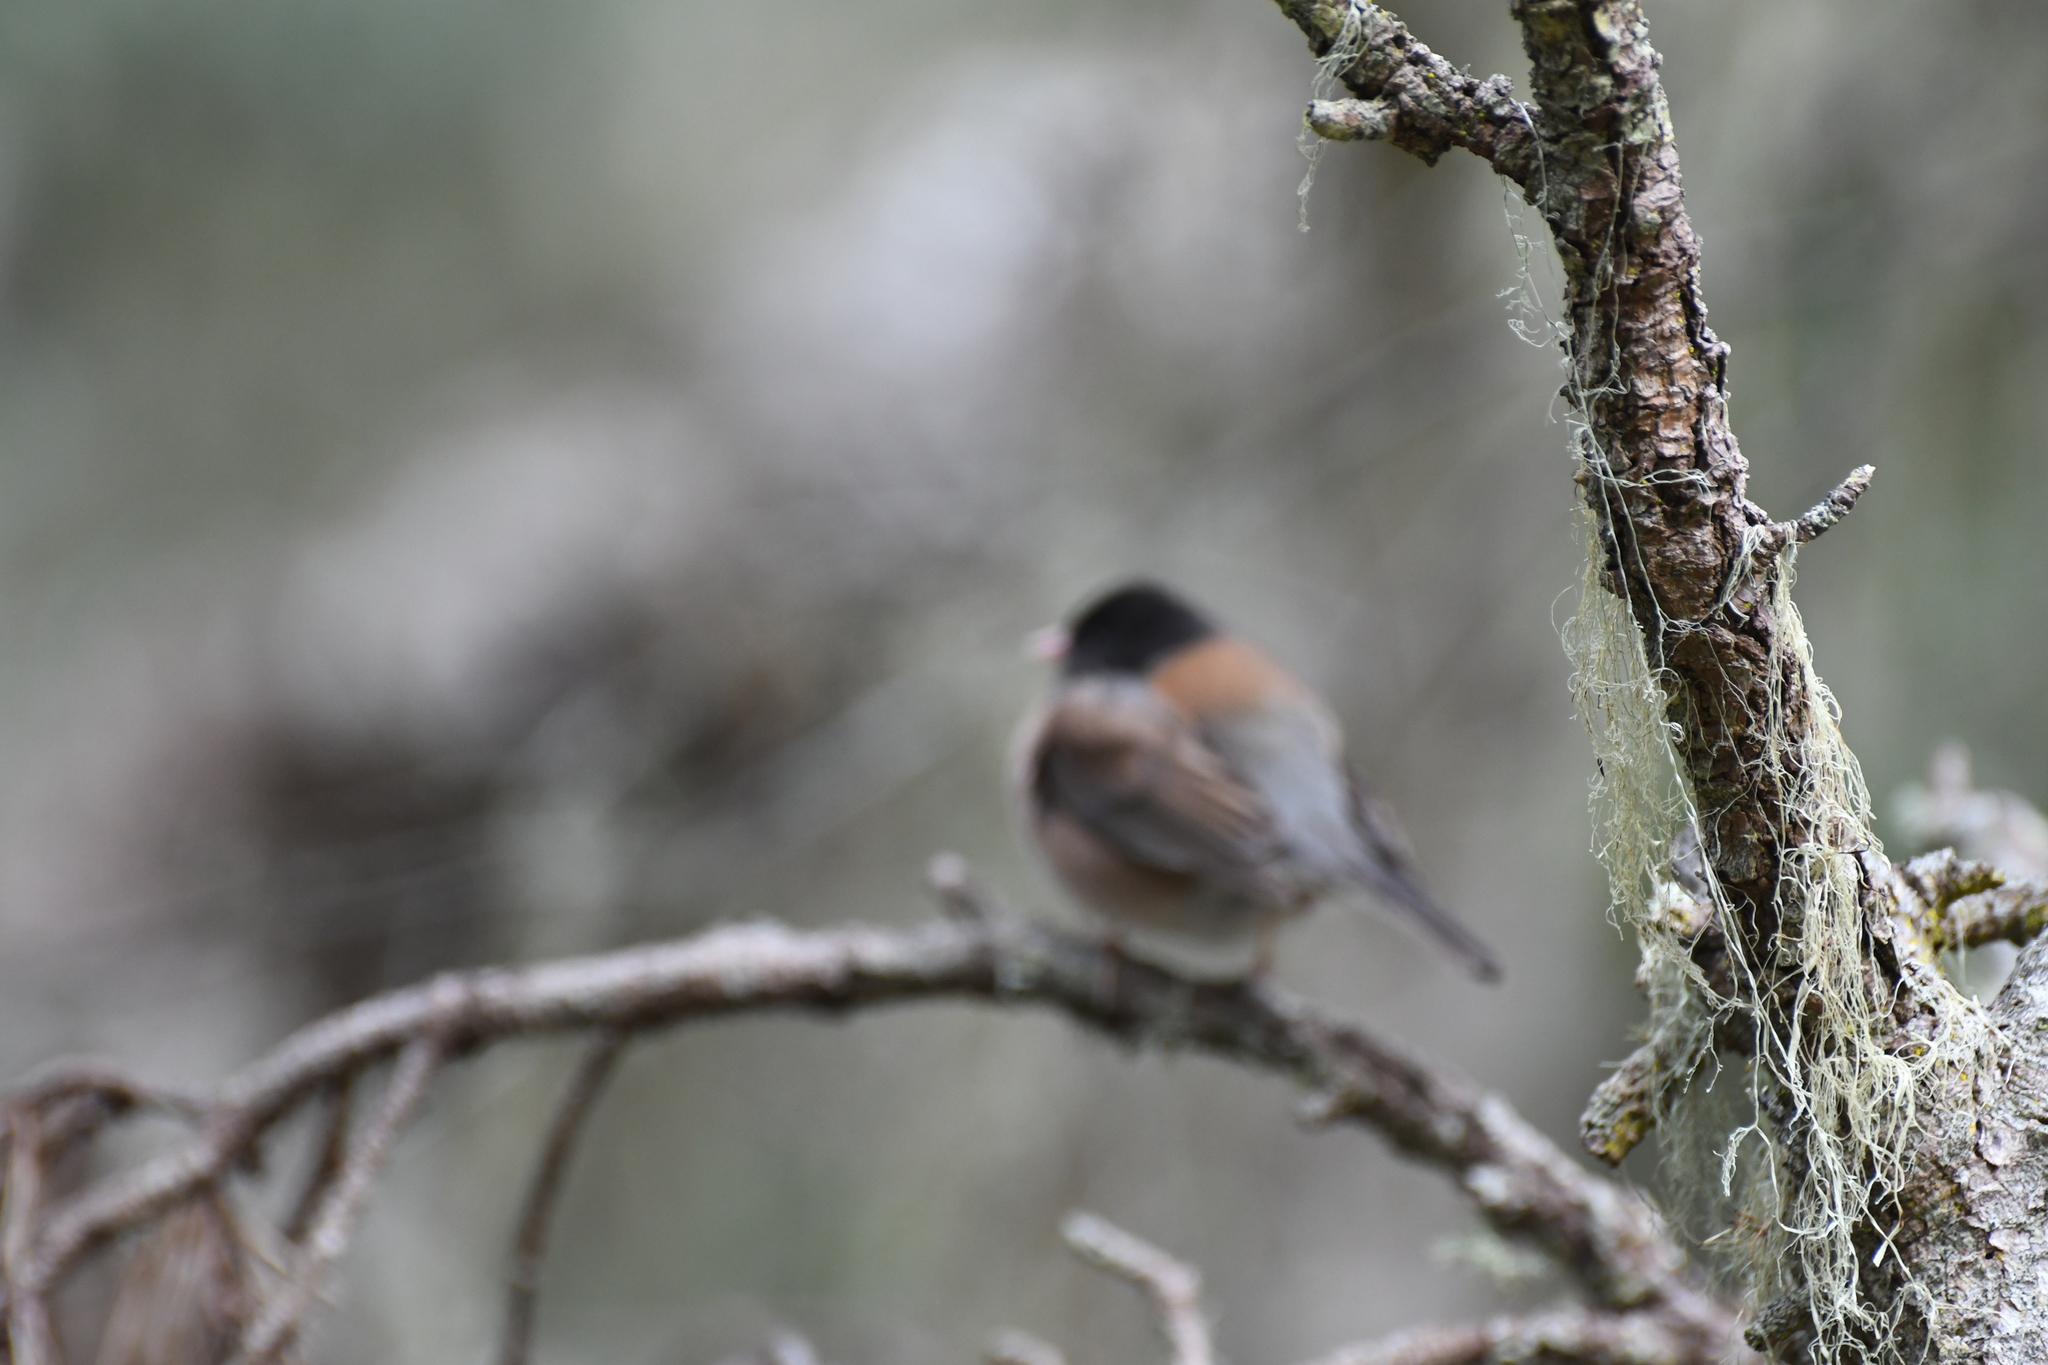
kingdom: Animalia
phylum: Chordata
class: Aves
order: Passeriformes
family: Passerellidae
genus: Junco
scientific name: Junco hyemalis
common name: Dark-eyed junco
